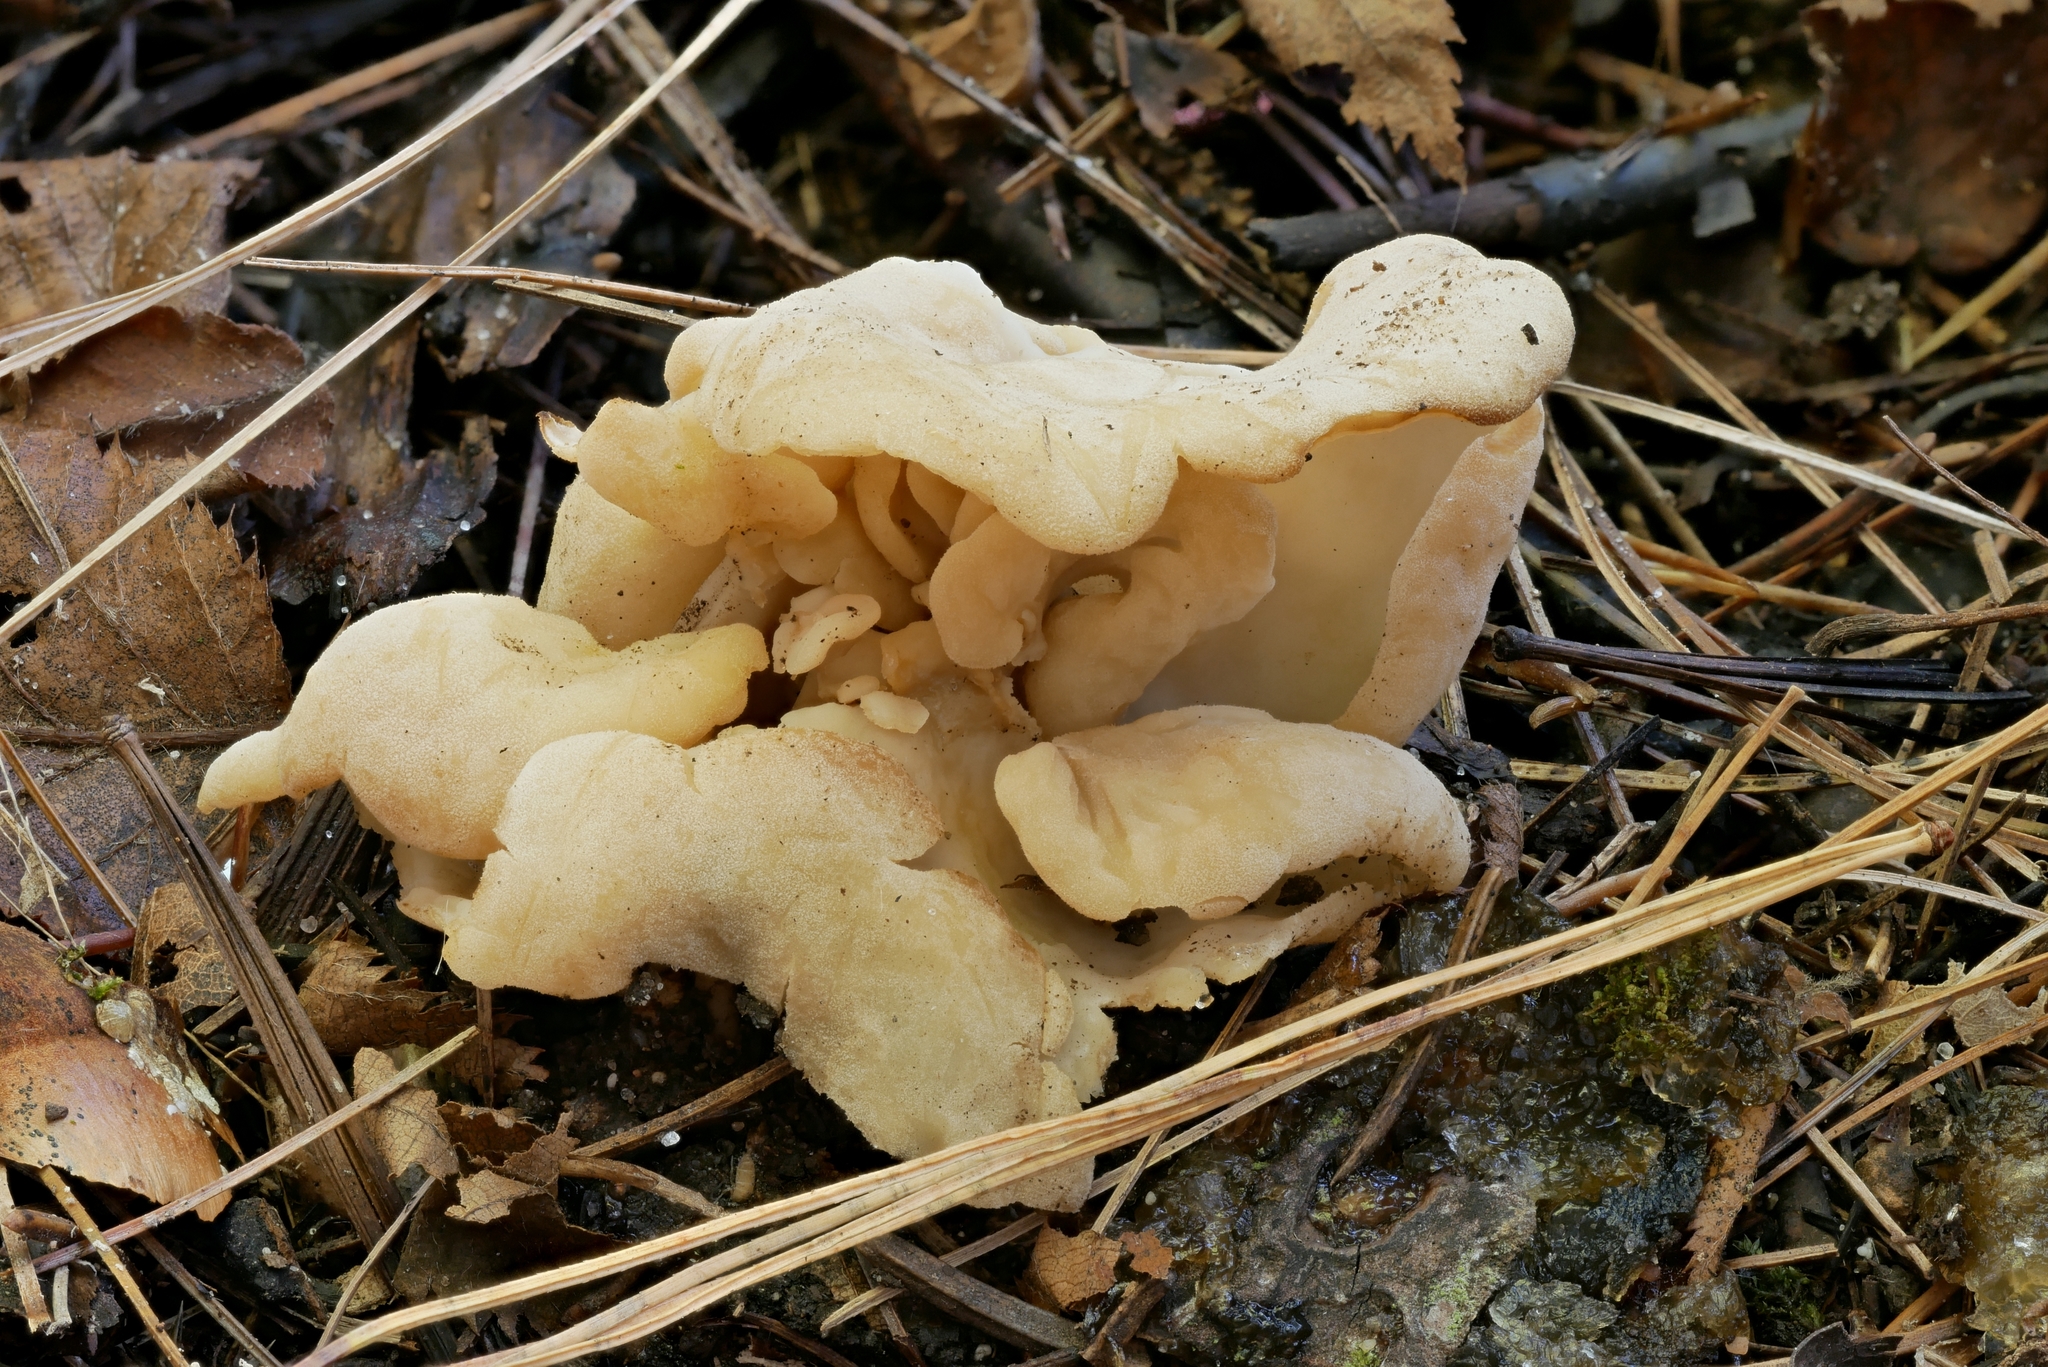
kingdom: Fungi
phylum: Ascomycota
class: Pezizomycetes
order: Pezizales
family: Helvellaceae
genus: Helvella
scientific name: Helvella crispa
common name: White saddle
